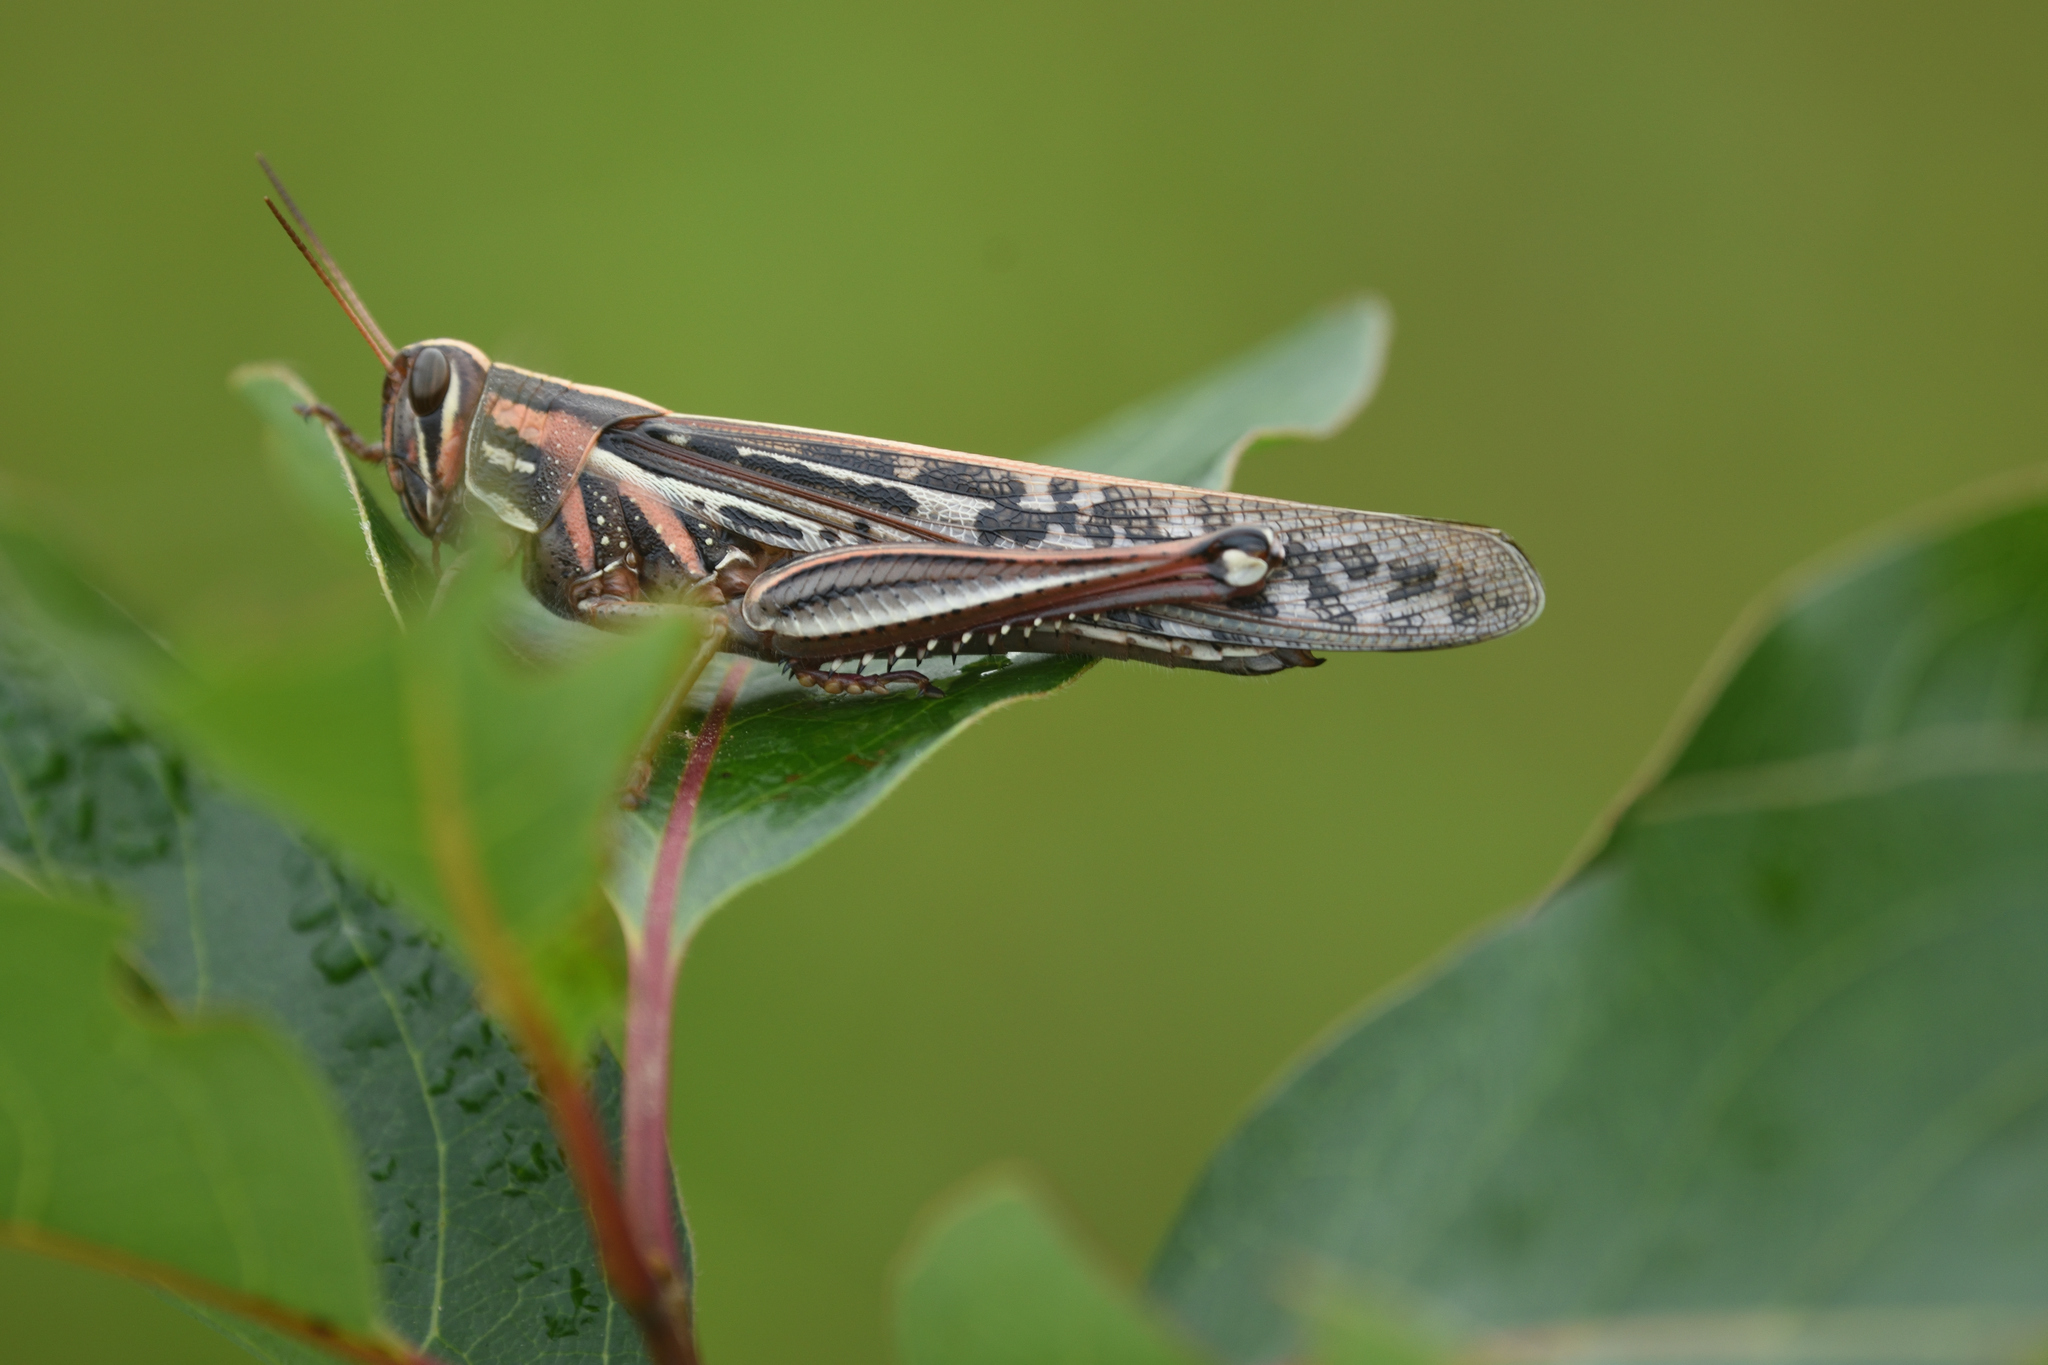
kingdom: Animalia
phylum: Arthropoda
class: Insecta
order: Orthoptera
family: Acrididae
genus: Schistocerca
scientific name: Schistocerca americana
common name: American bird locust
